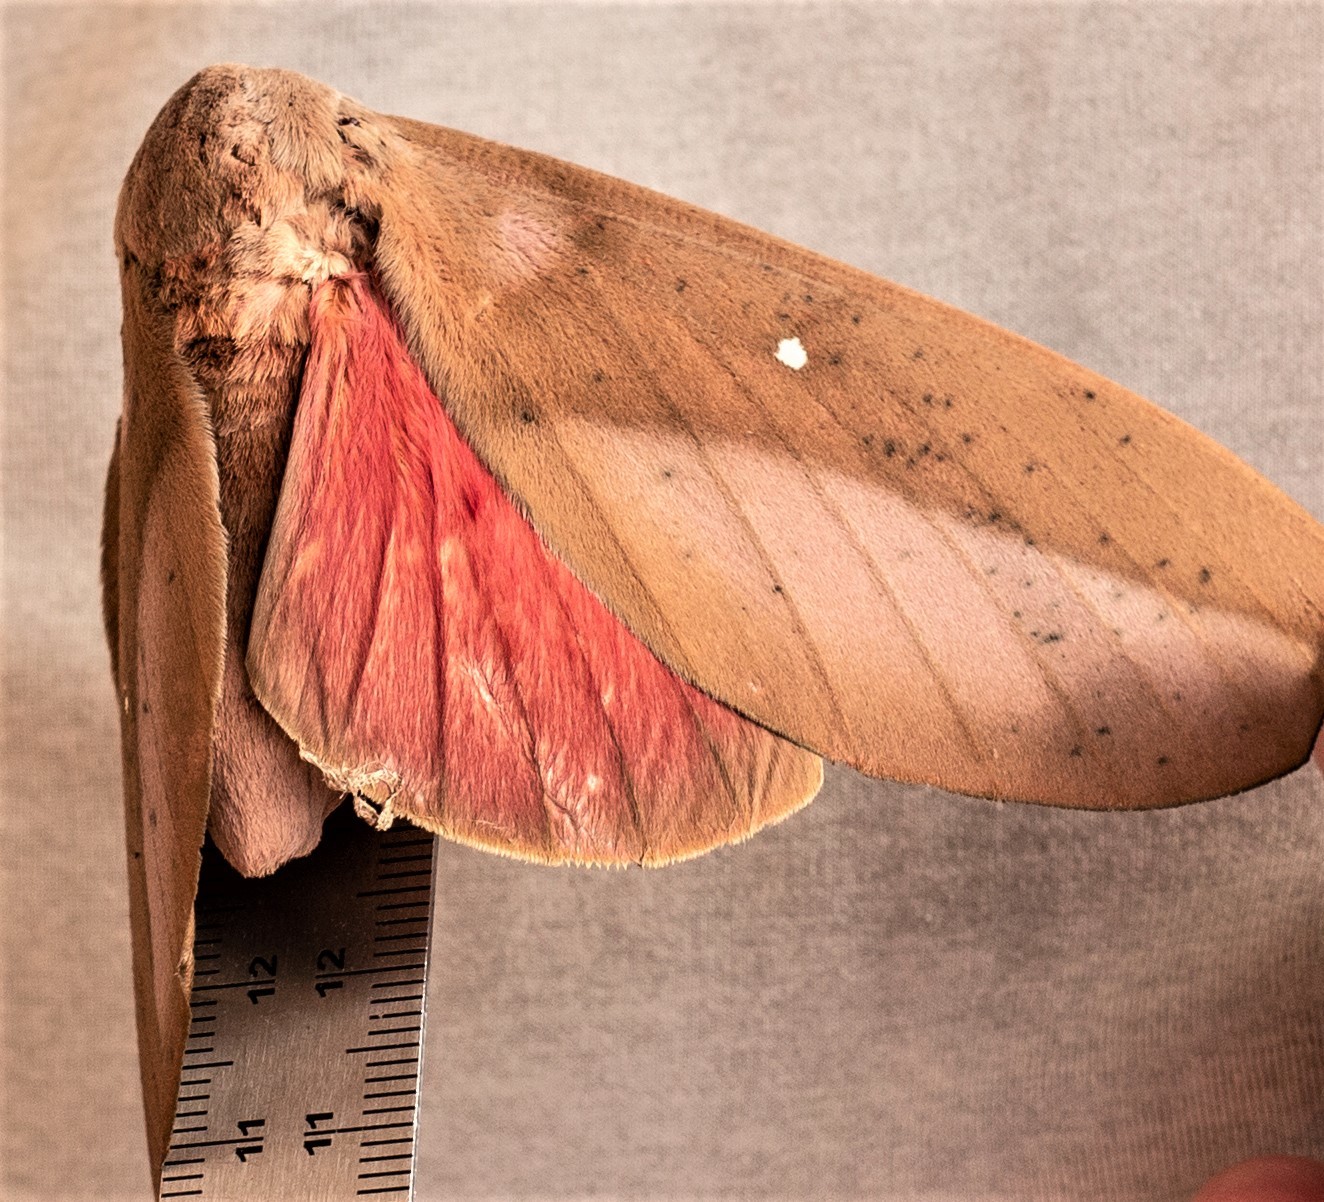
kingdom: Animalia
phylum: Arthropoda
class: Insecta
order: Lepidoptera
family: Saturniidae
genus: Othorene
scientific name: Othorene hodeva
